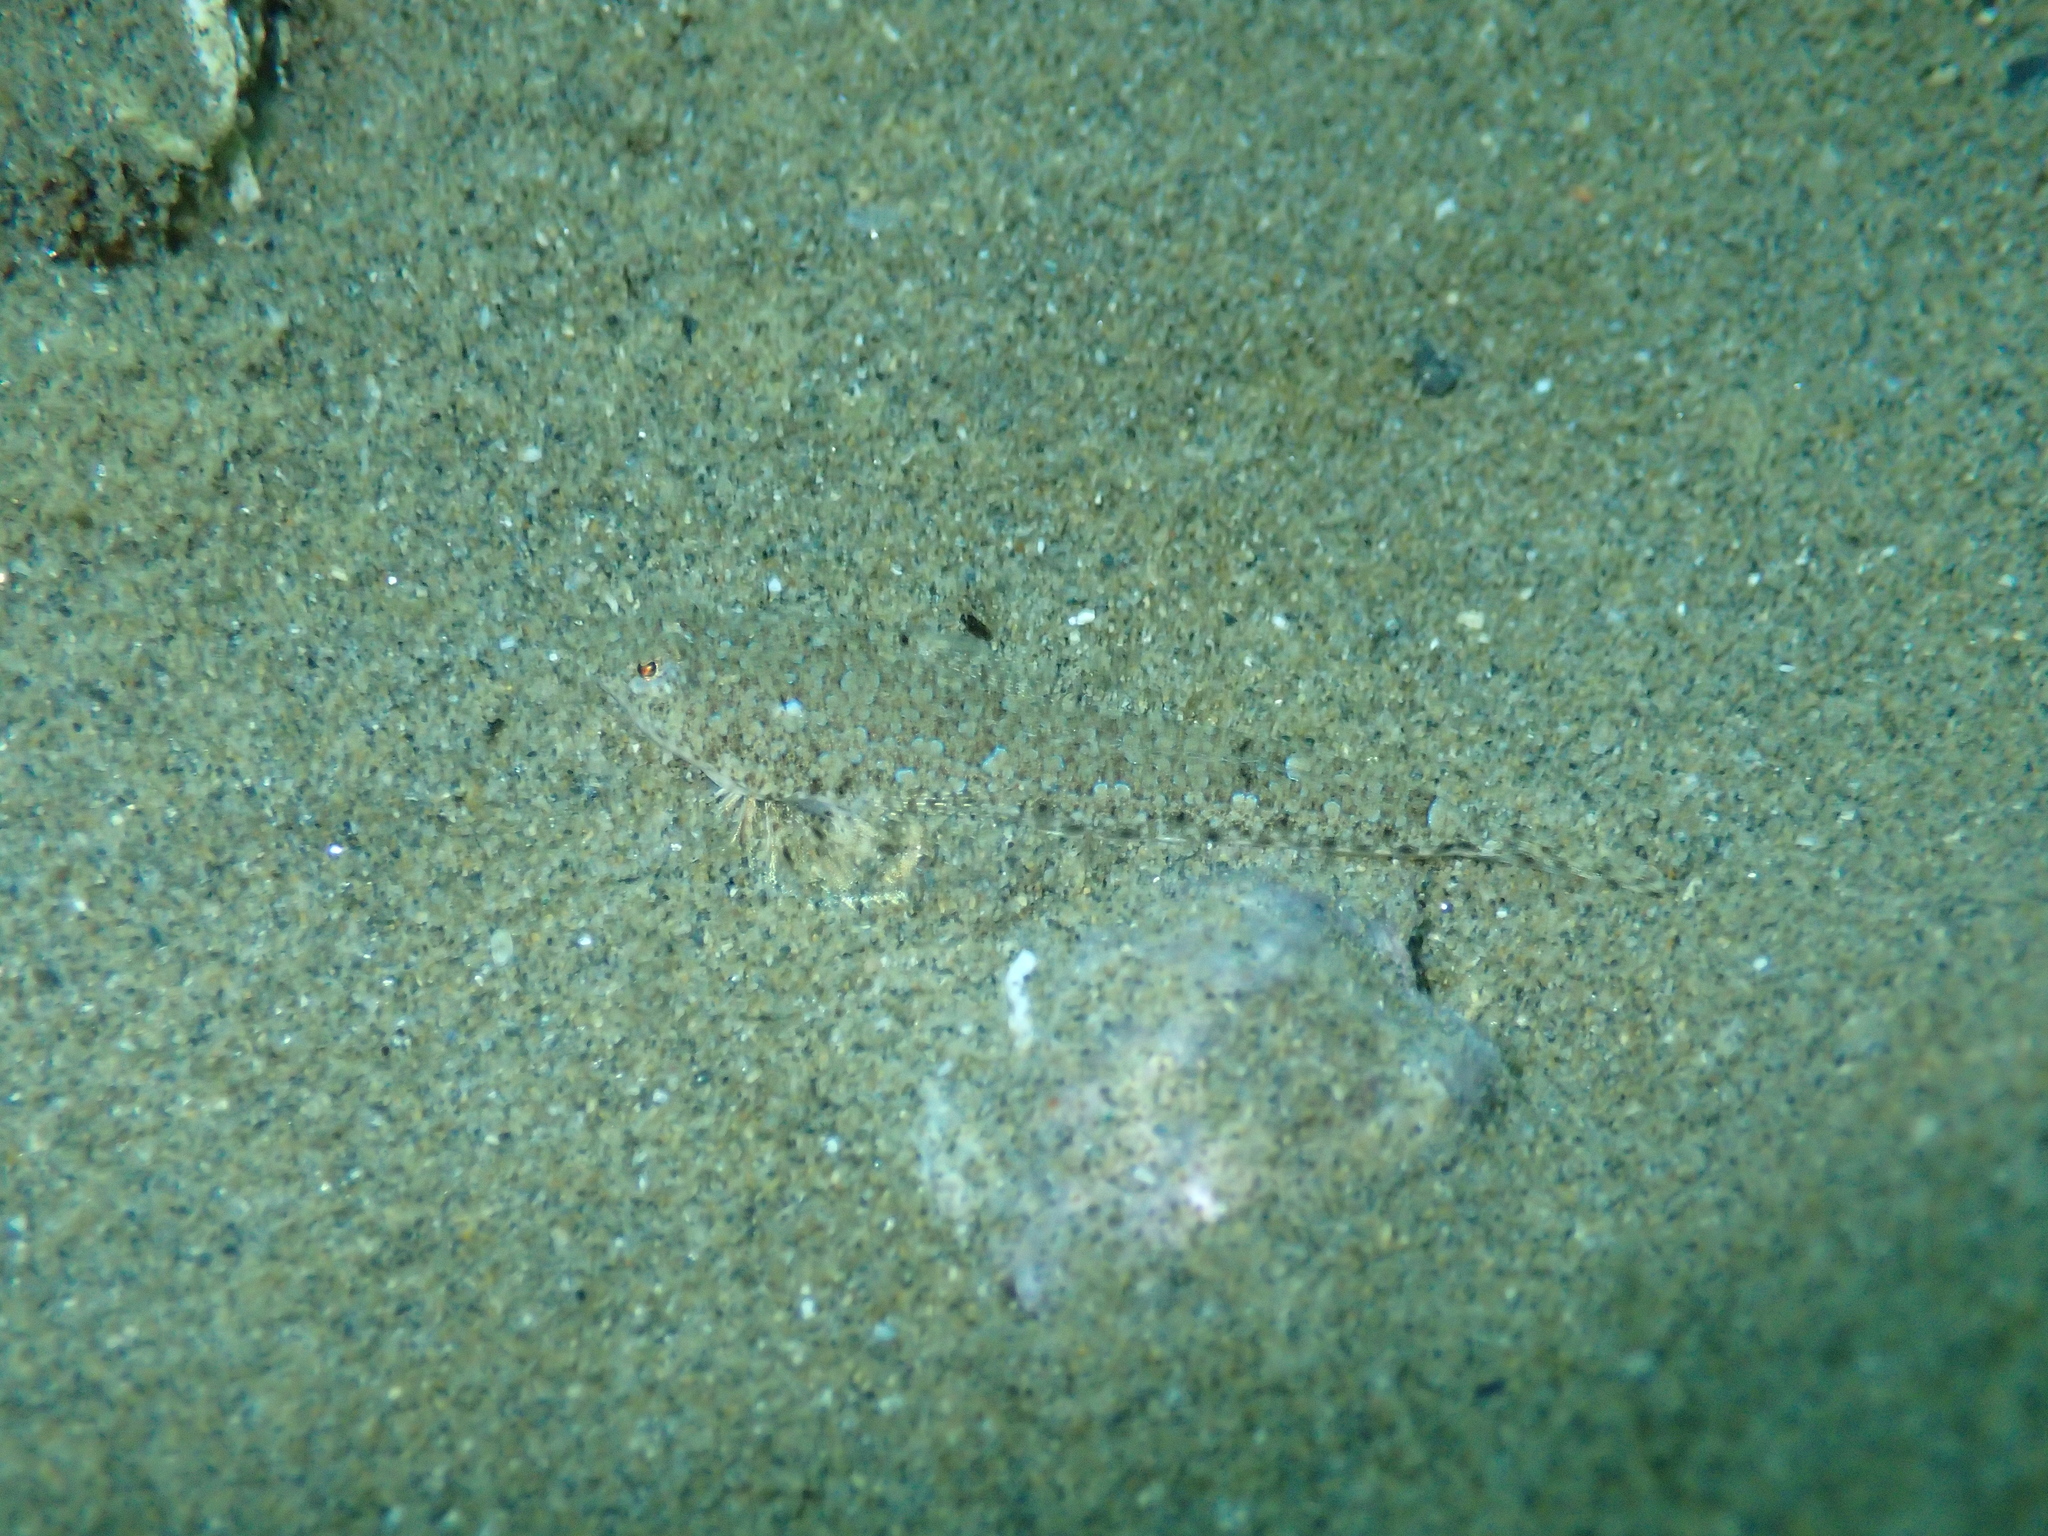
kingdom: Animalia
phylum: Chordata
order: Perciformes
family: Callionymidae
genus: Callionymus
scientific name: Callionymus risso
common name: Risso’s dragonet
